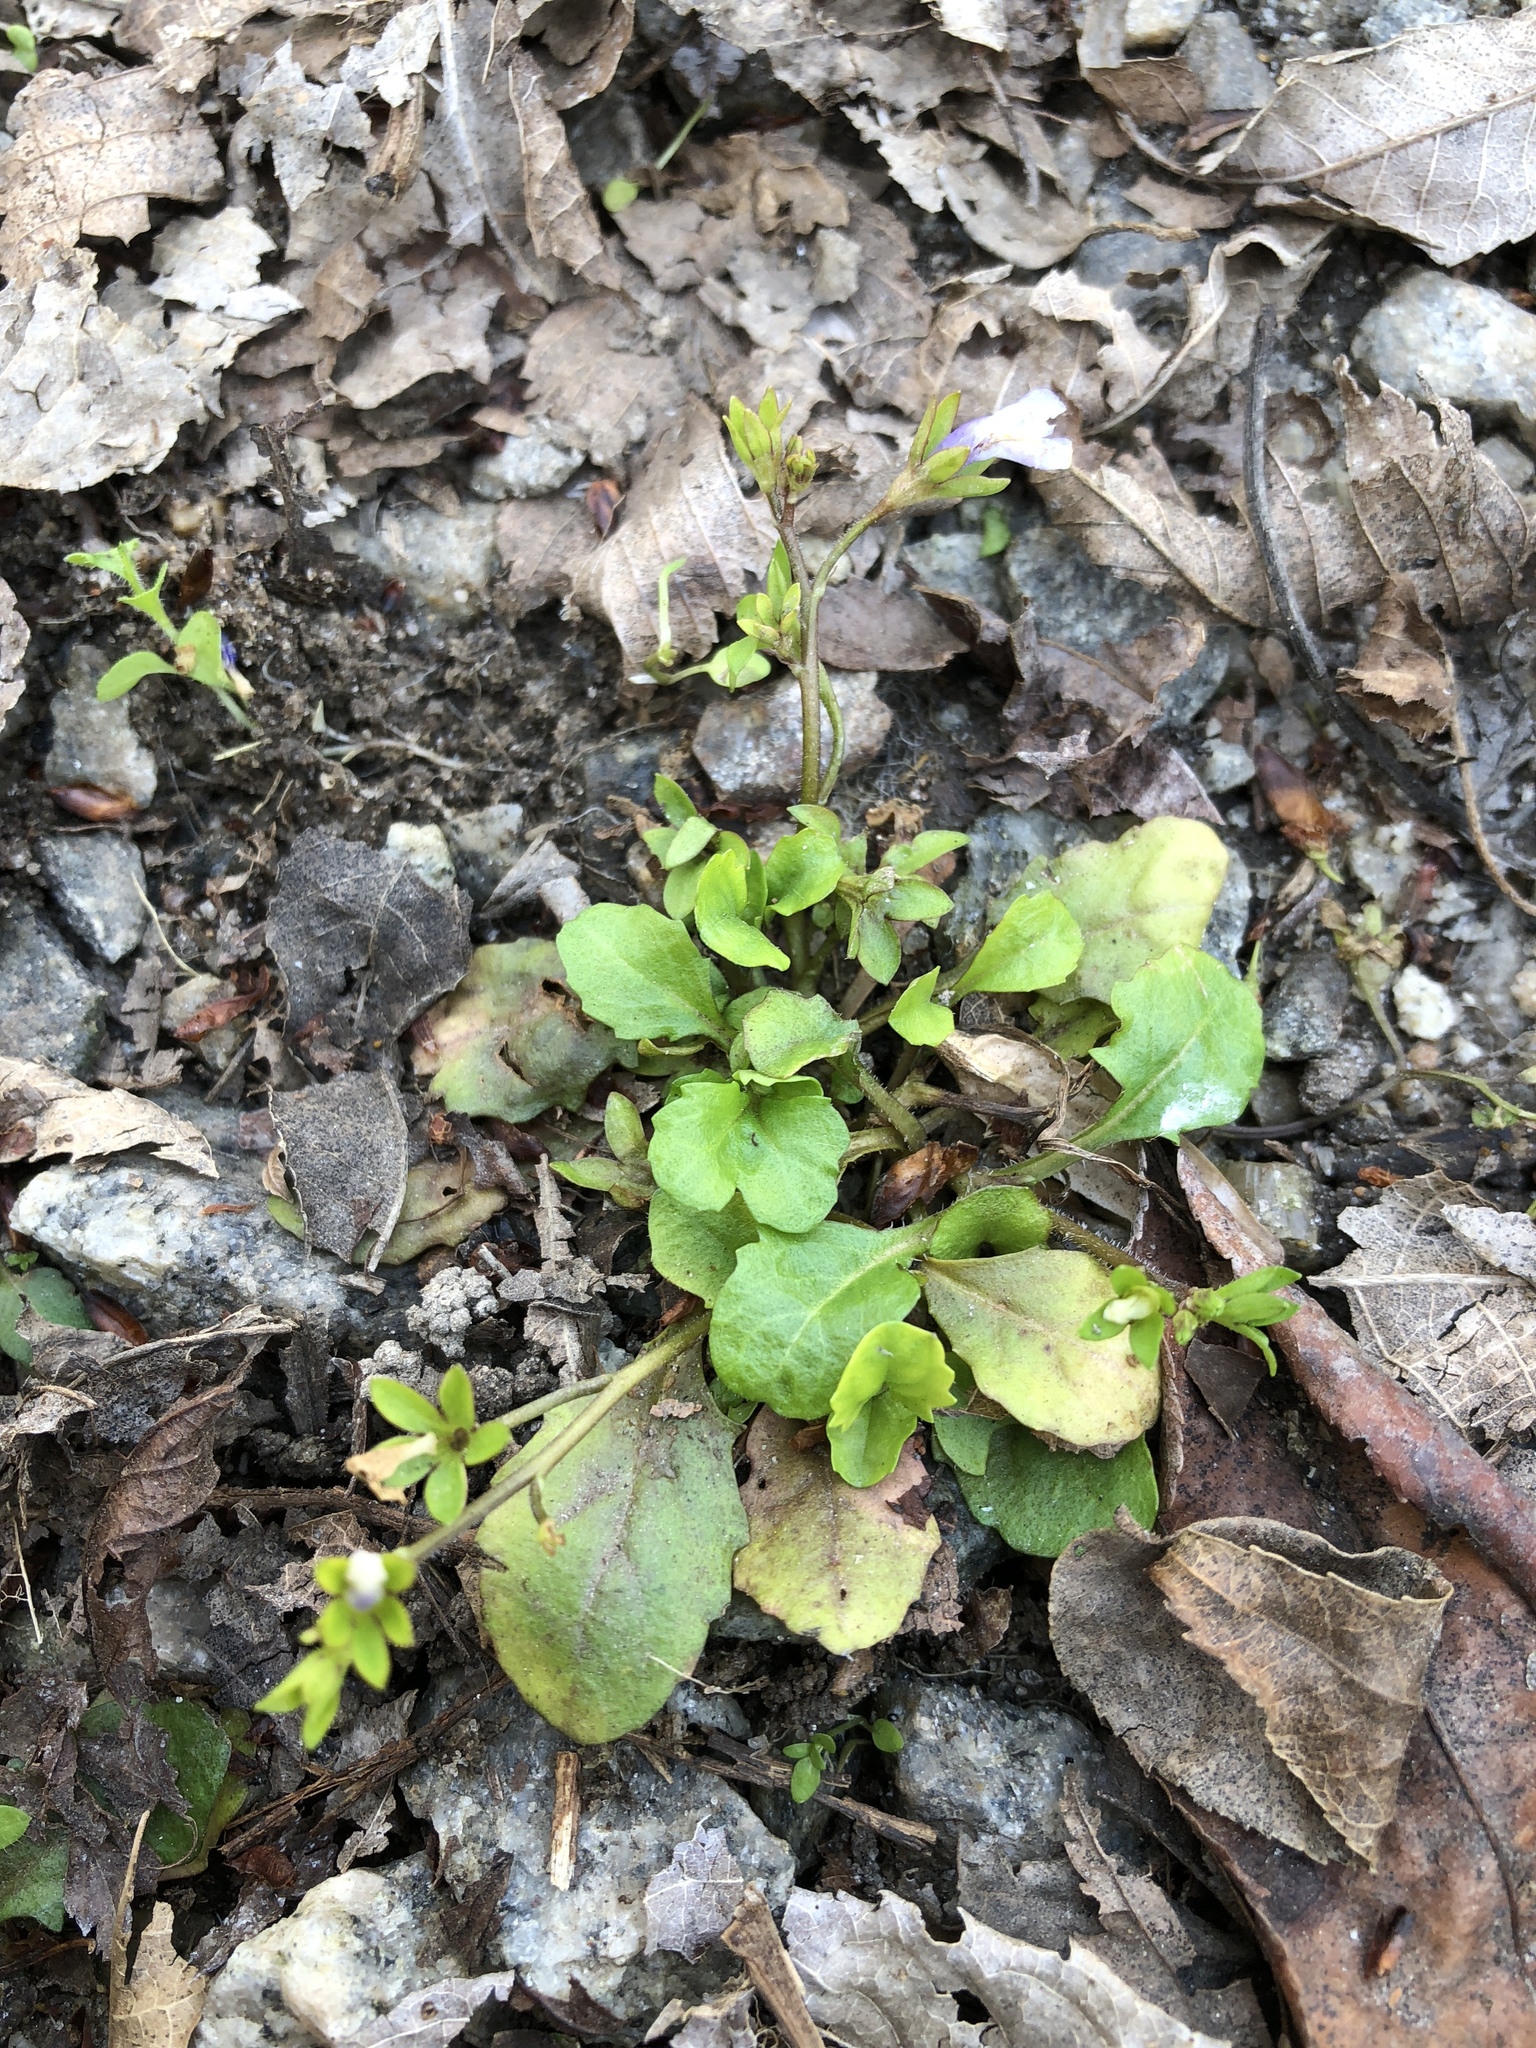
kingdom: Plantae
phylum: Tracheophyta
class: Magnoliopsida
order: Lamiales
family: Mazaceae
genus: Mazus
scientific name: Mazus pumilus
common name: Japanese mazus
